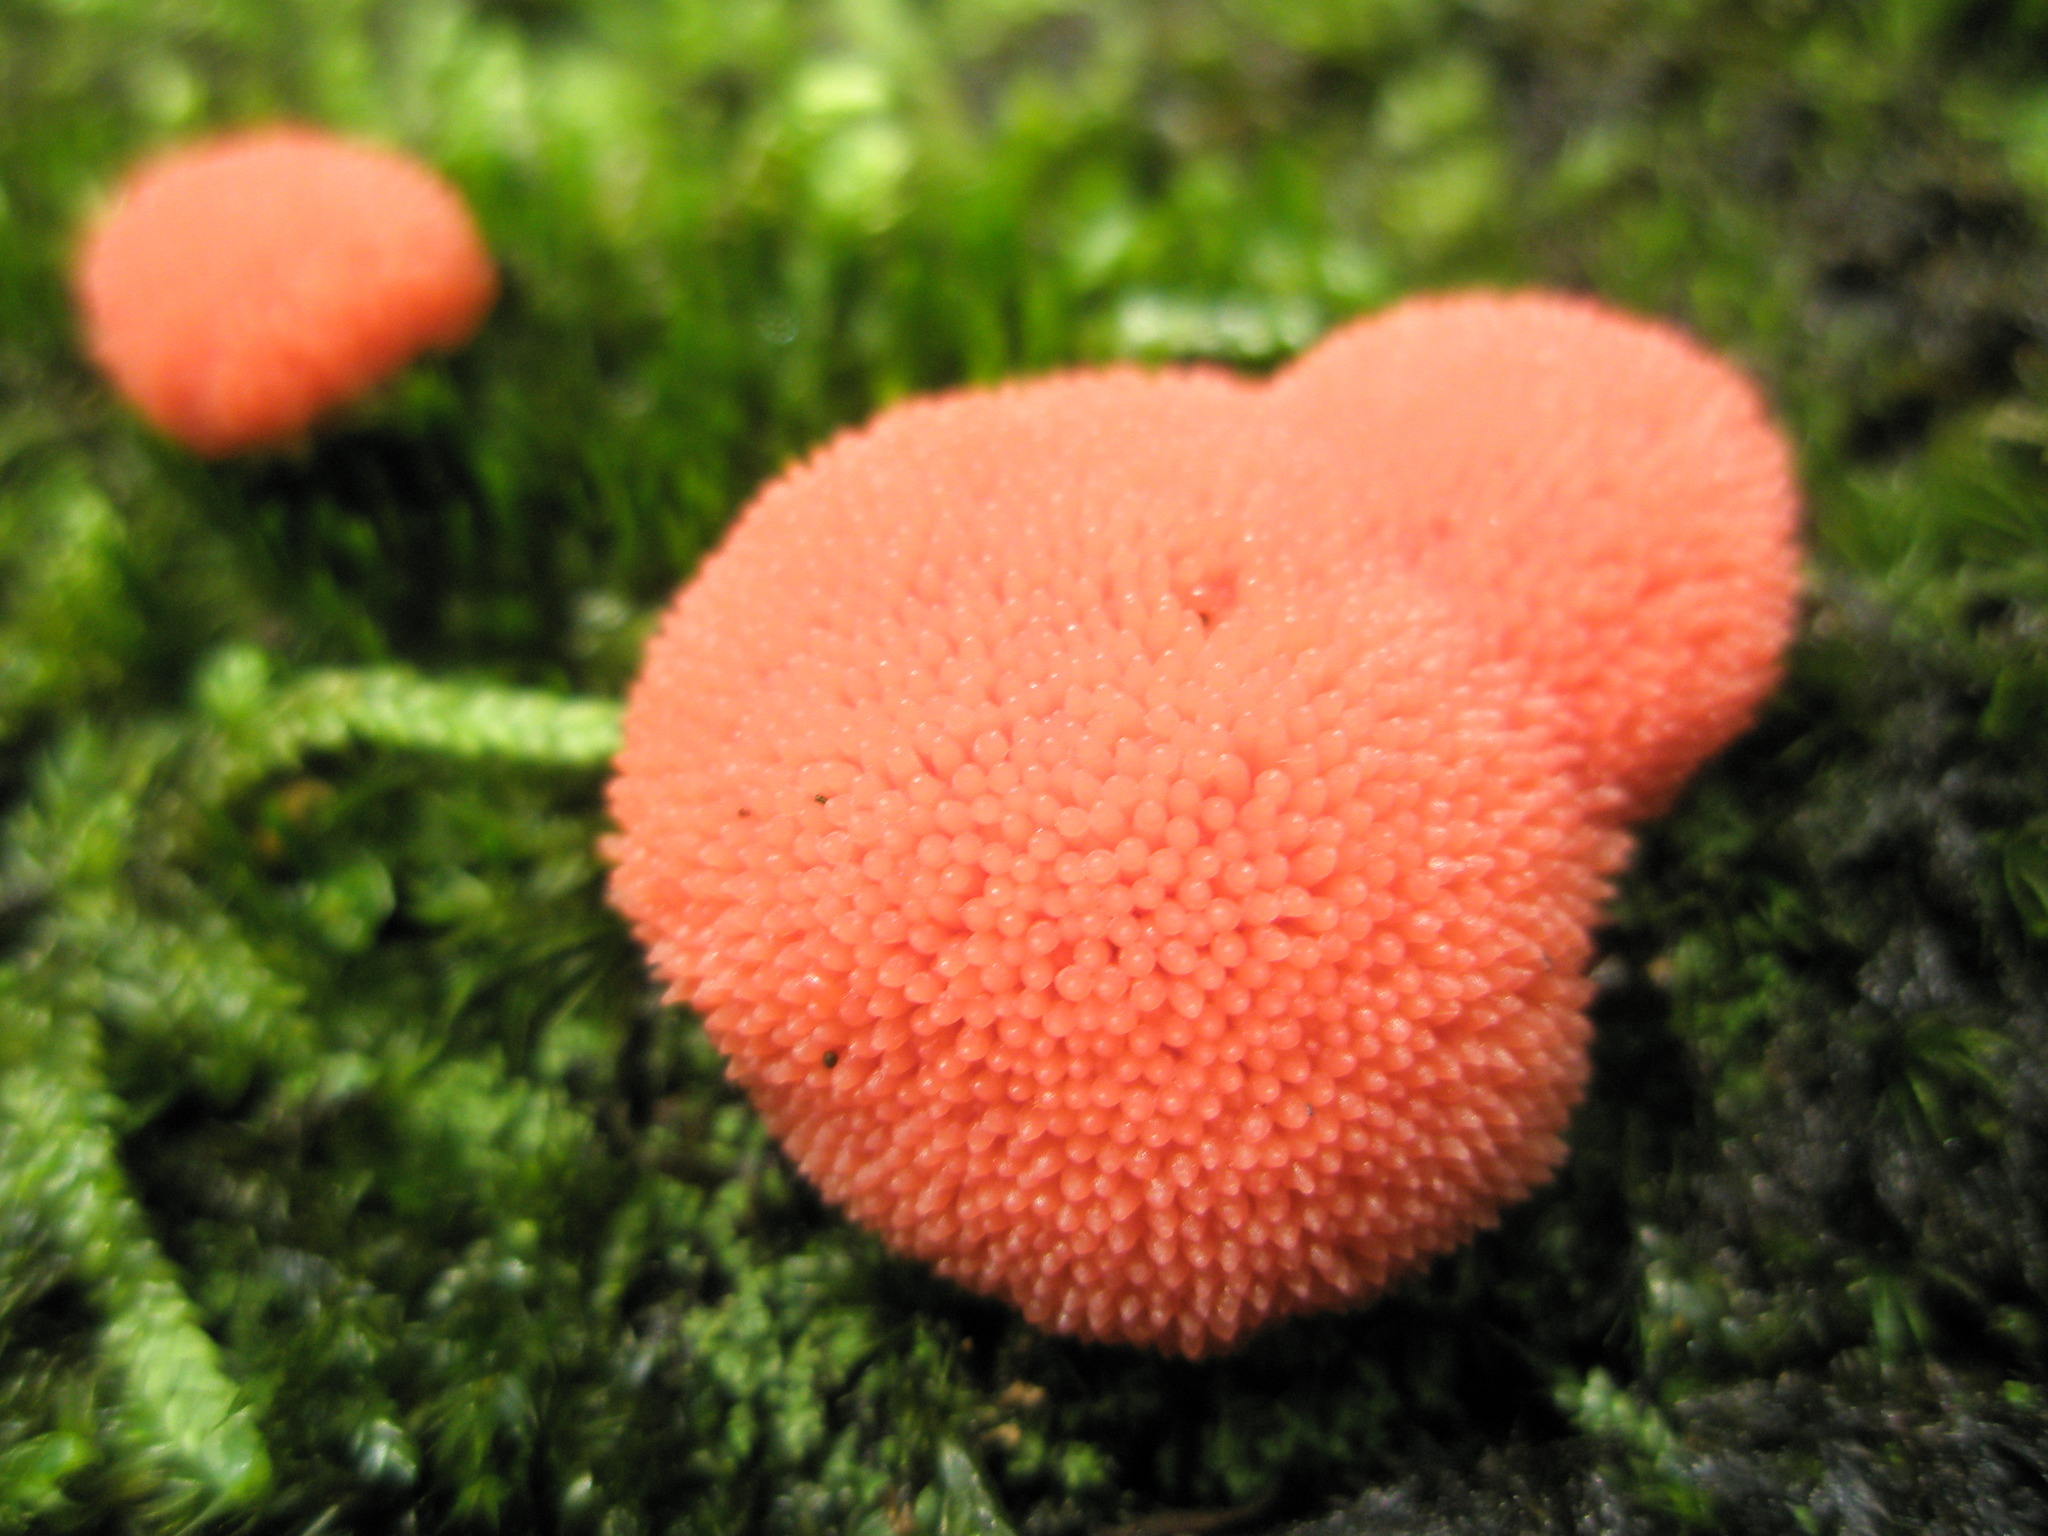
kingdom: Protozoa
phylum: Mycetozoa
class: Myxomycetes
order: Cribrariales
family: Tubiferaceae
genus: Tubifera
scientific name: Tubifera ferruginosa
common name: Red raspberry slime mold
